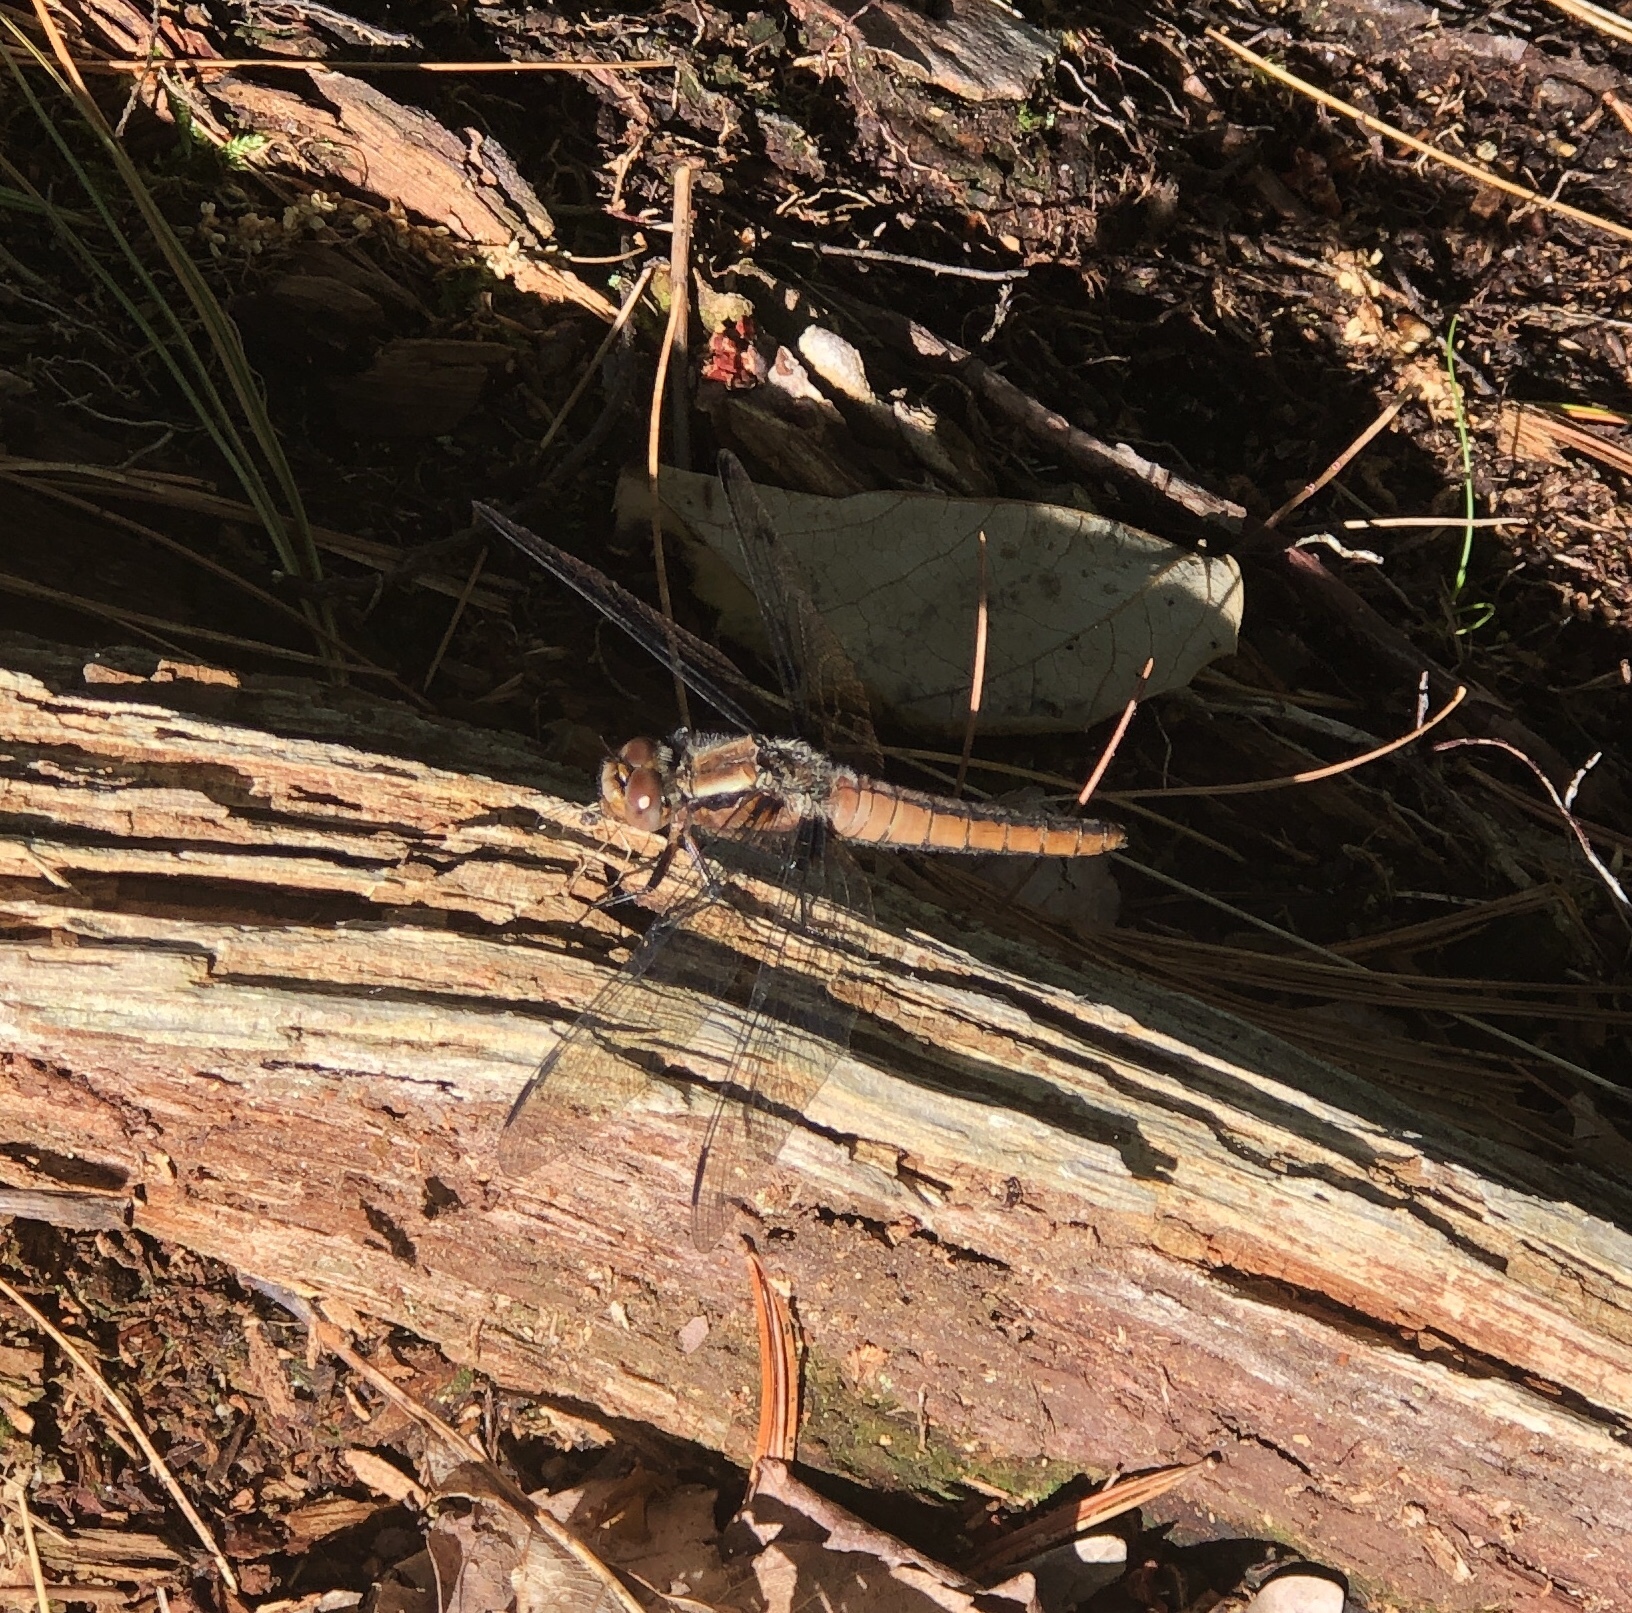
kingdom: Animalia
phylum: Arthropoda
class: Insecta
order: Odonata
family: Libellulidae
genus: Ladona
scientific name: Ladona julia
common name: Chalk-fronted corporal
